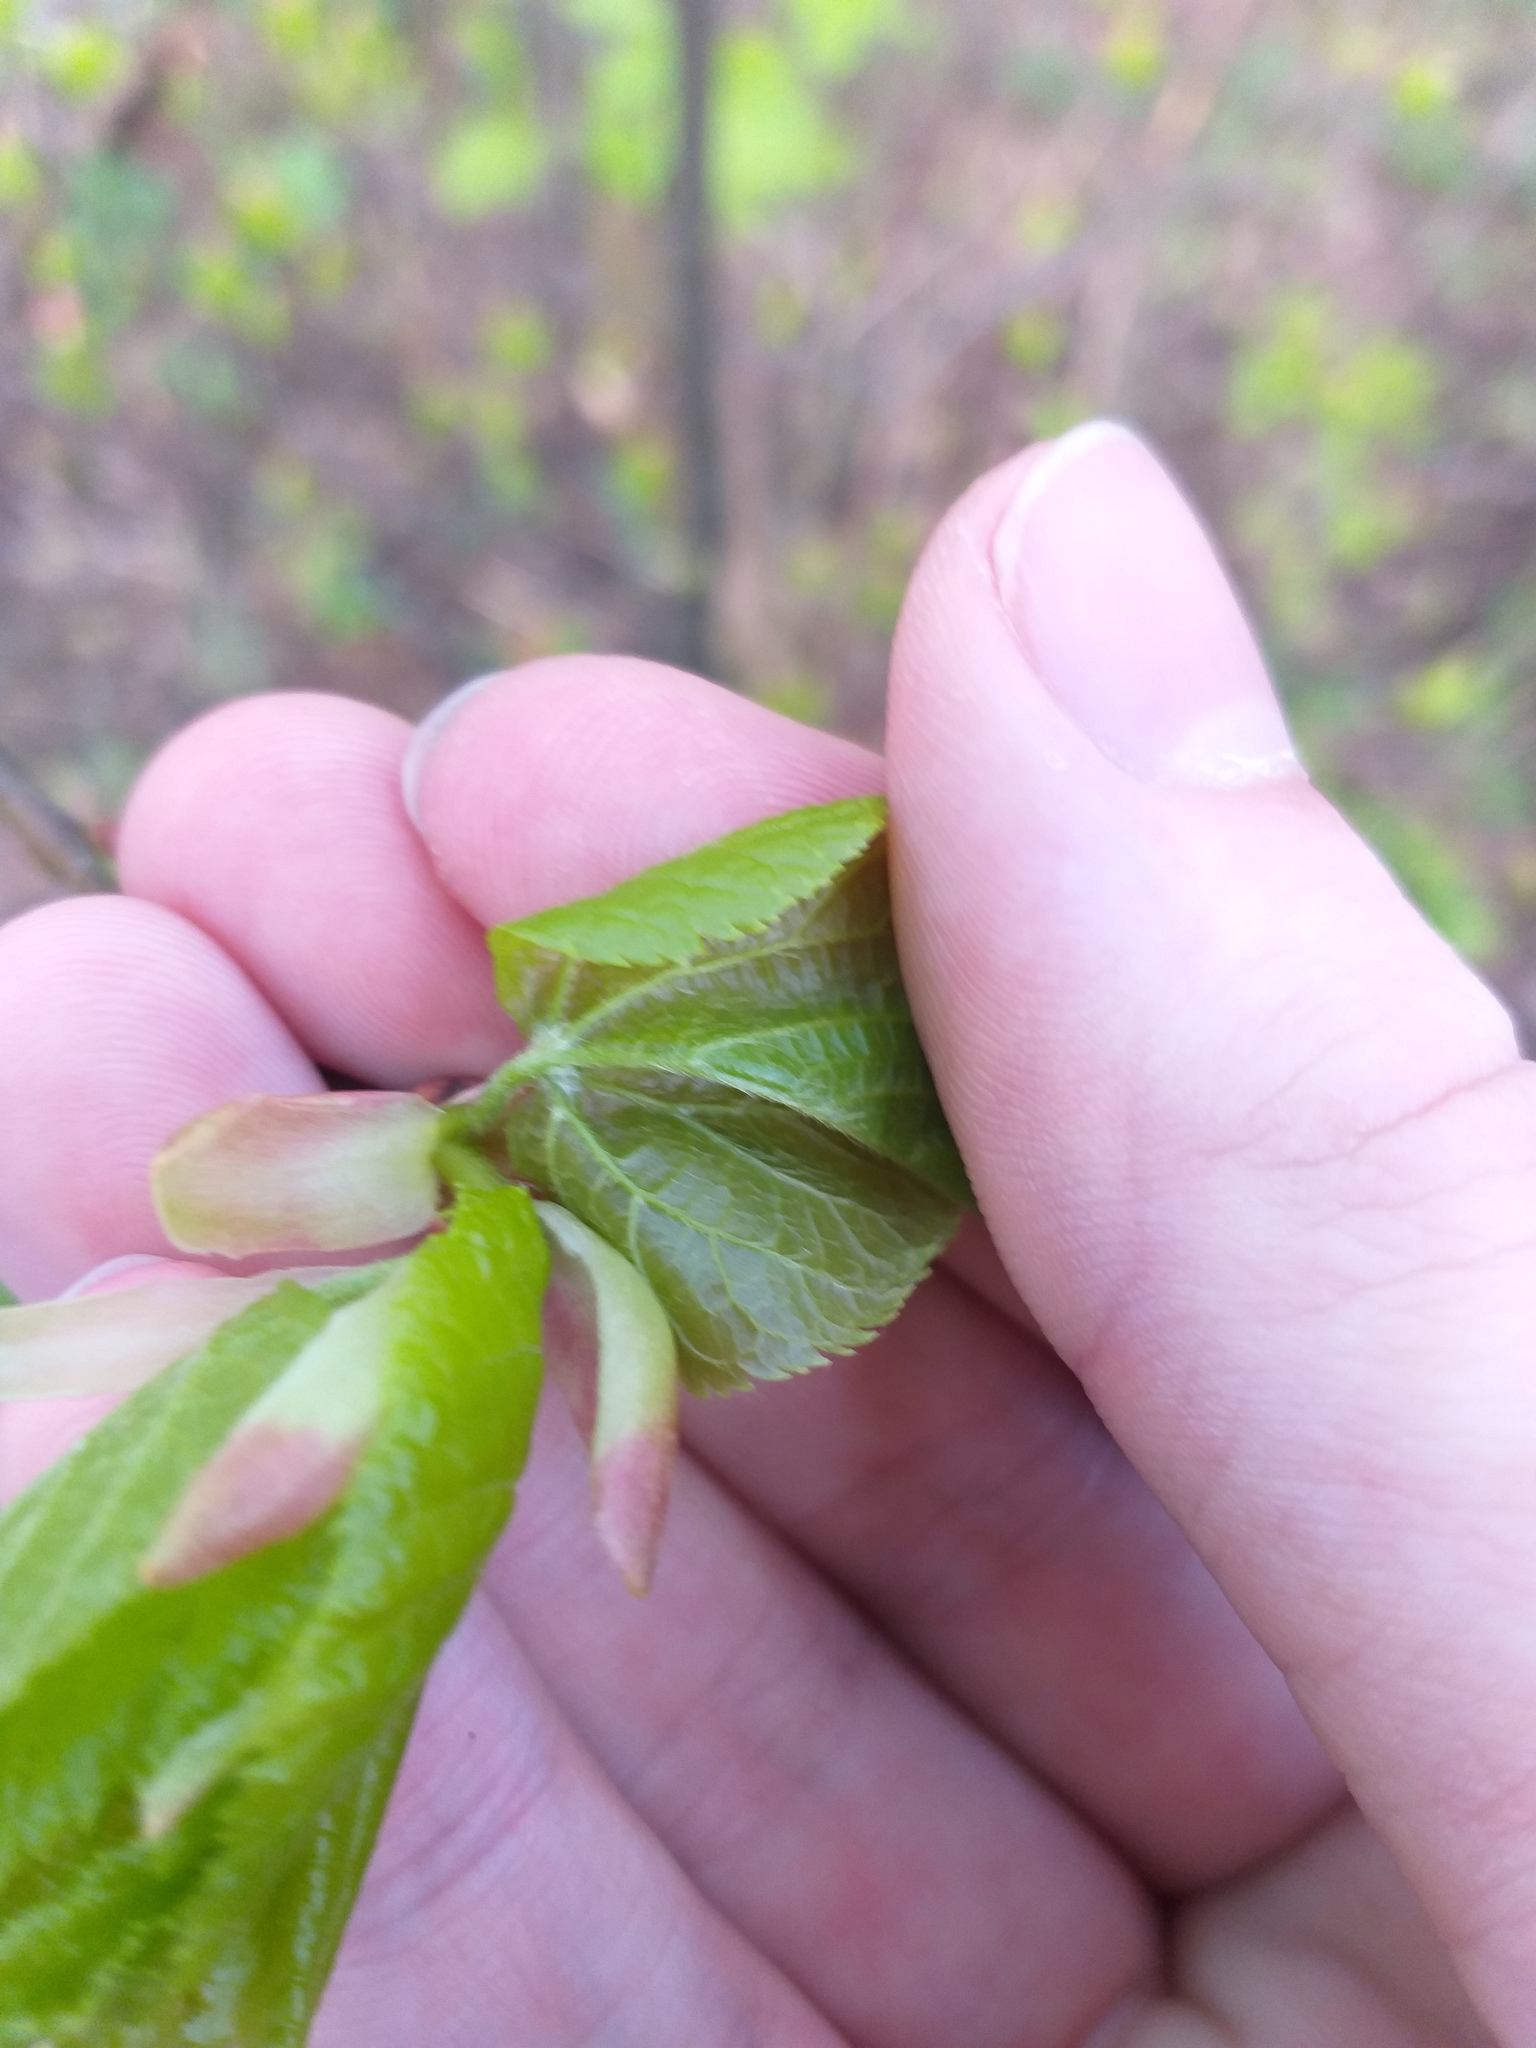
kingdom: Plantae
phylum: Tracheophyta
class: Magnoliopsida
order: Malvales
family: Malvaceae
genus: Tilia
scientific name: Tilia cordata
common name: Small-leaved lime
